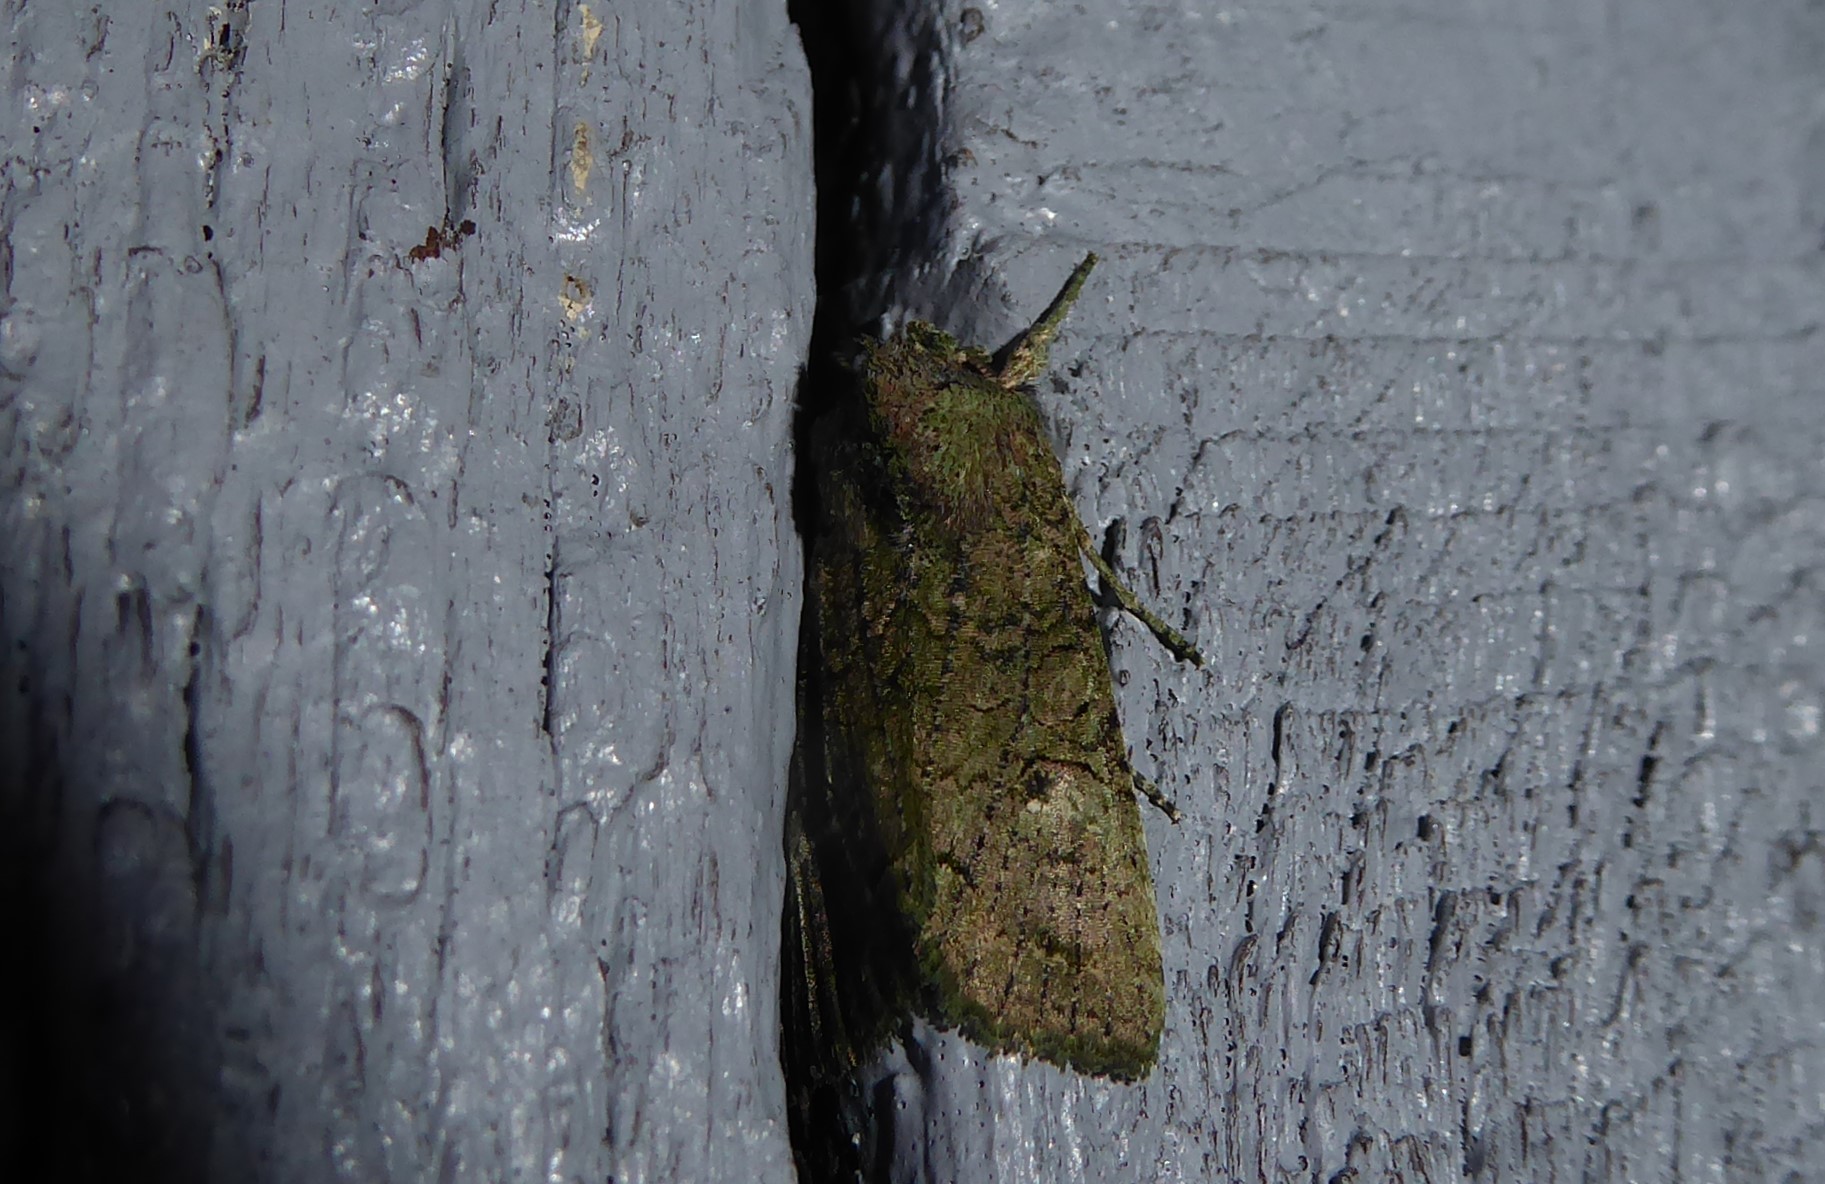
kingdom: Animalia
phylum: Arthropoda
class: Insecta
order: Lepidoptera
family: Noctuidae
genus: Meterana
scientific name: Meterana levis
